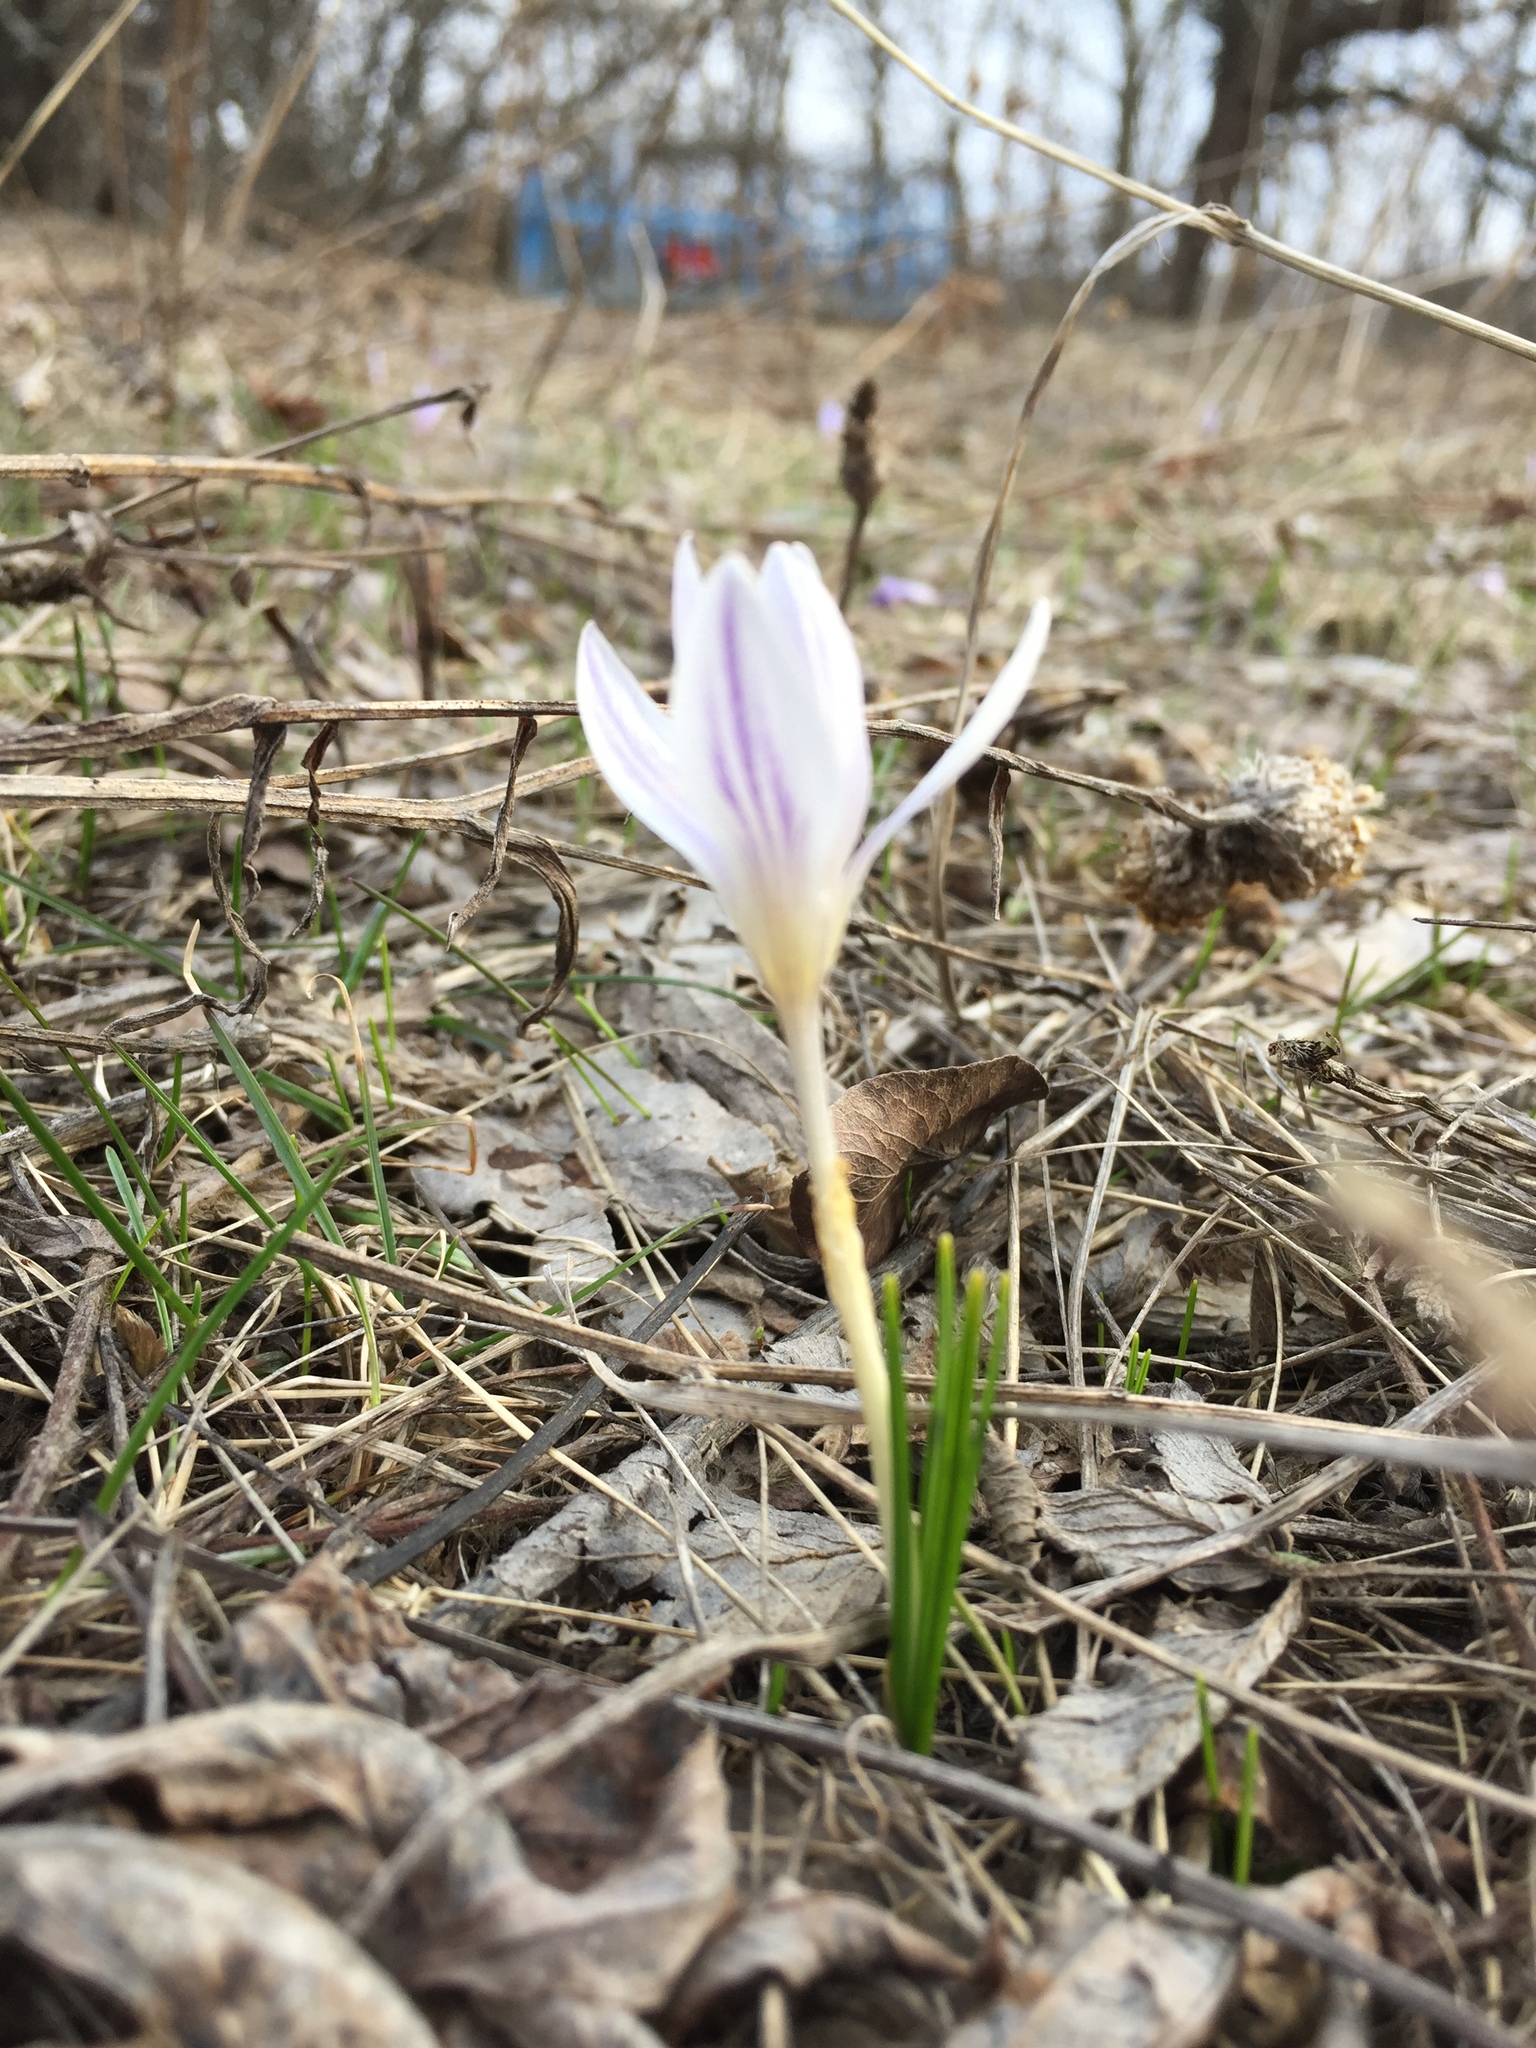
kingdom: Plantae
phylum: Tracheophyta
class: Liliopsida
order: Asparagales
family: Iridaceae
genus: Crocus
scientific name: Crocus reticulatus
